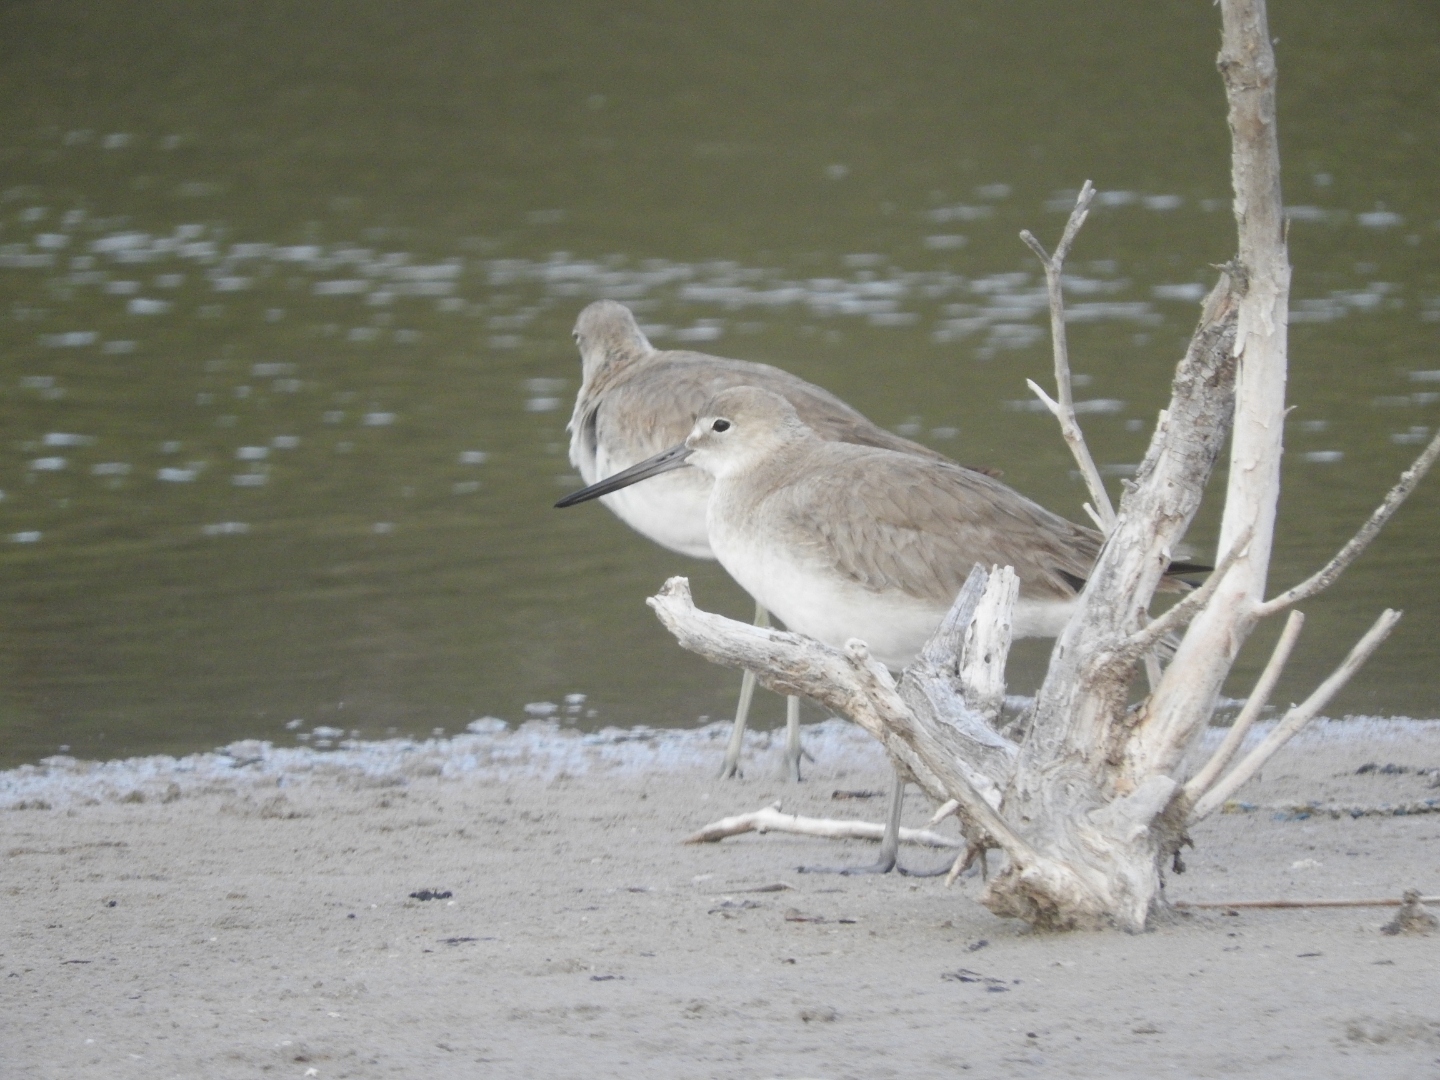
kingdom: Animalia
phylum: Chordata
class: Aves
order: Charadriiformes
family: Scolopacidae
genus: Tringa
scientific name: Tringa semipalmata
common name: Willet
